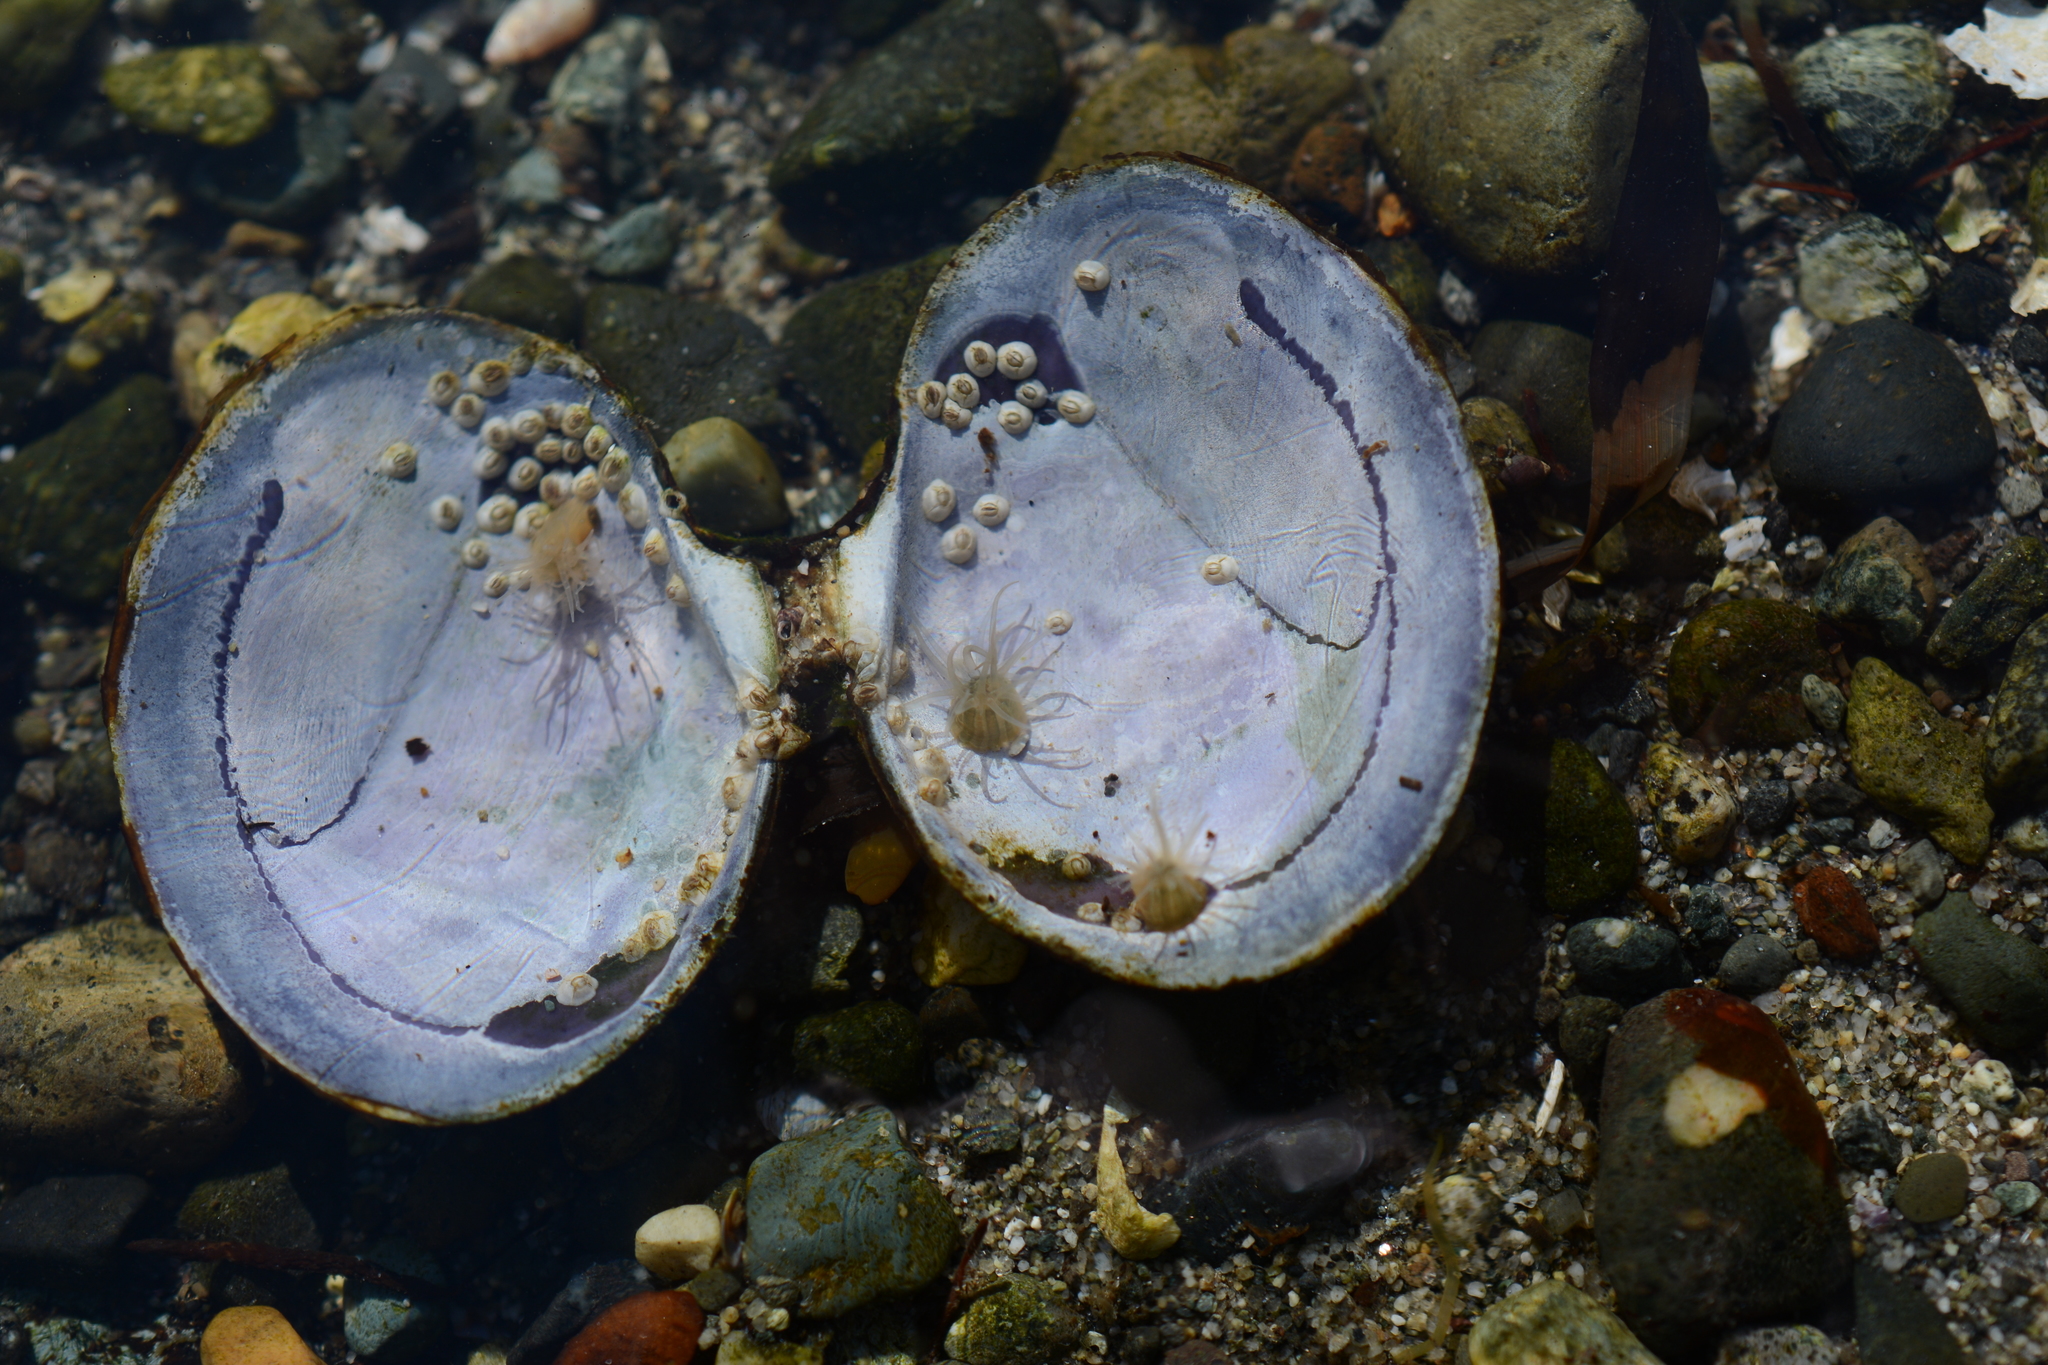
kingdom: Animalia
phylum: Cnidaria
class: Anthozoa
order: Actiniaria
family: Diadumenidae
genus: Diadumene
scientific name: Diadumene lineata
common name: Orange-striped anemone
